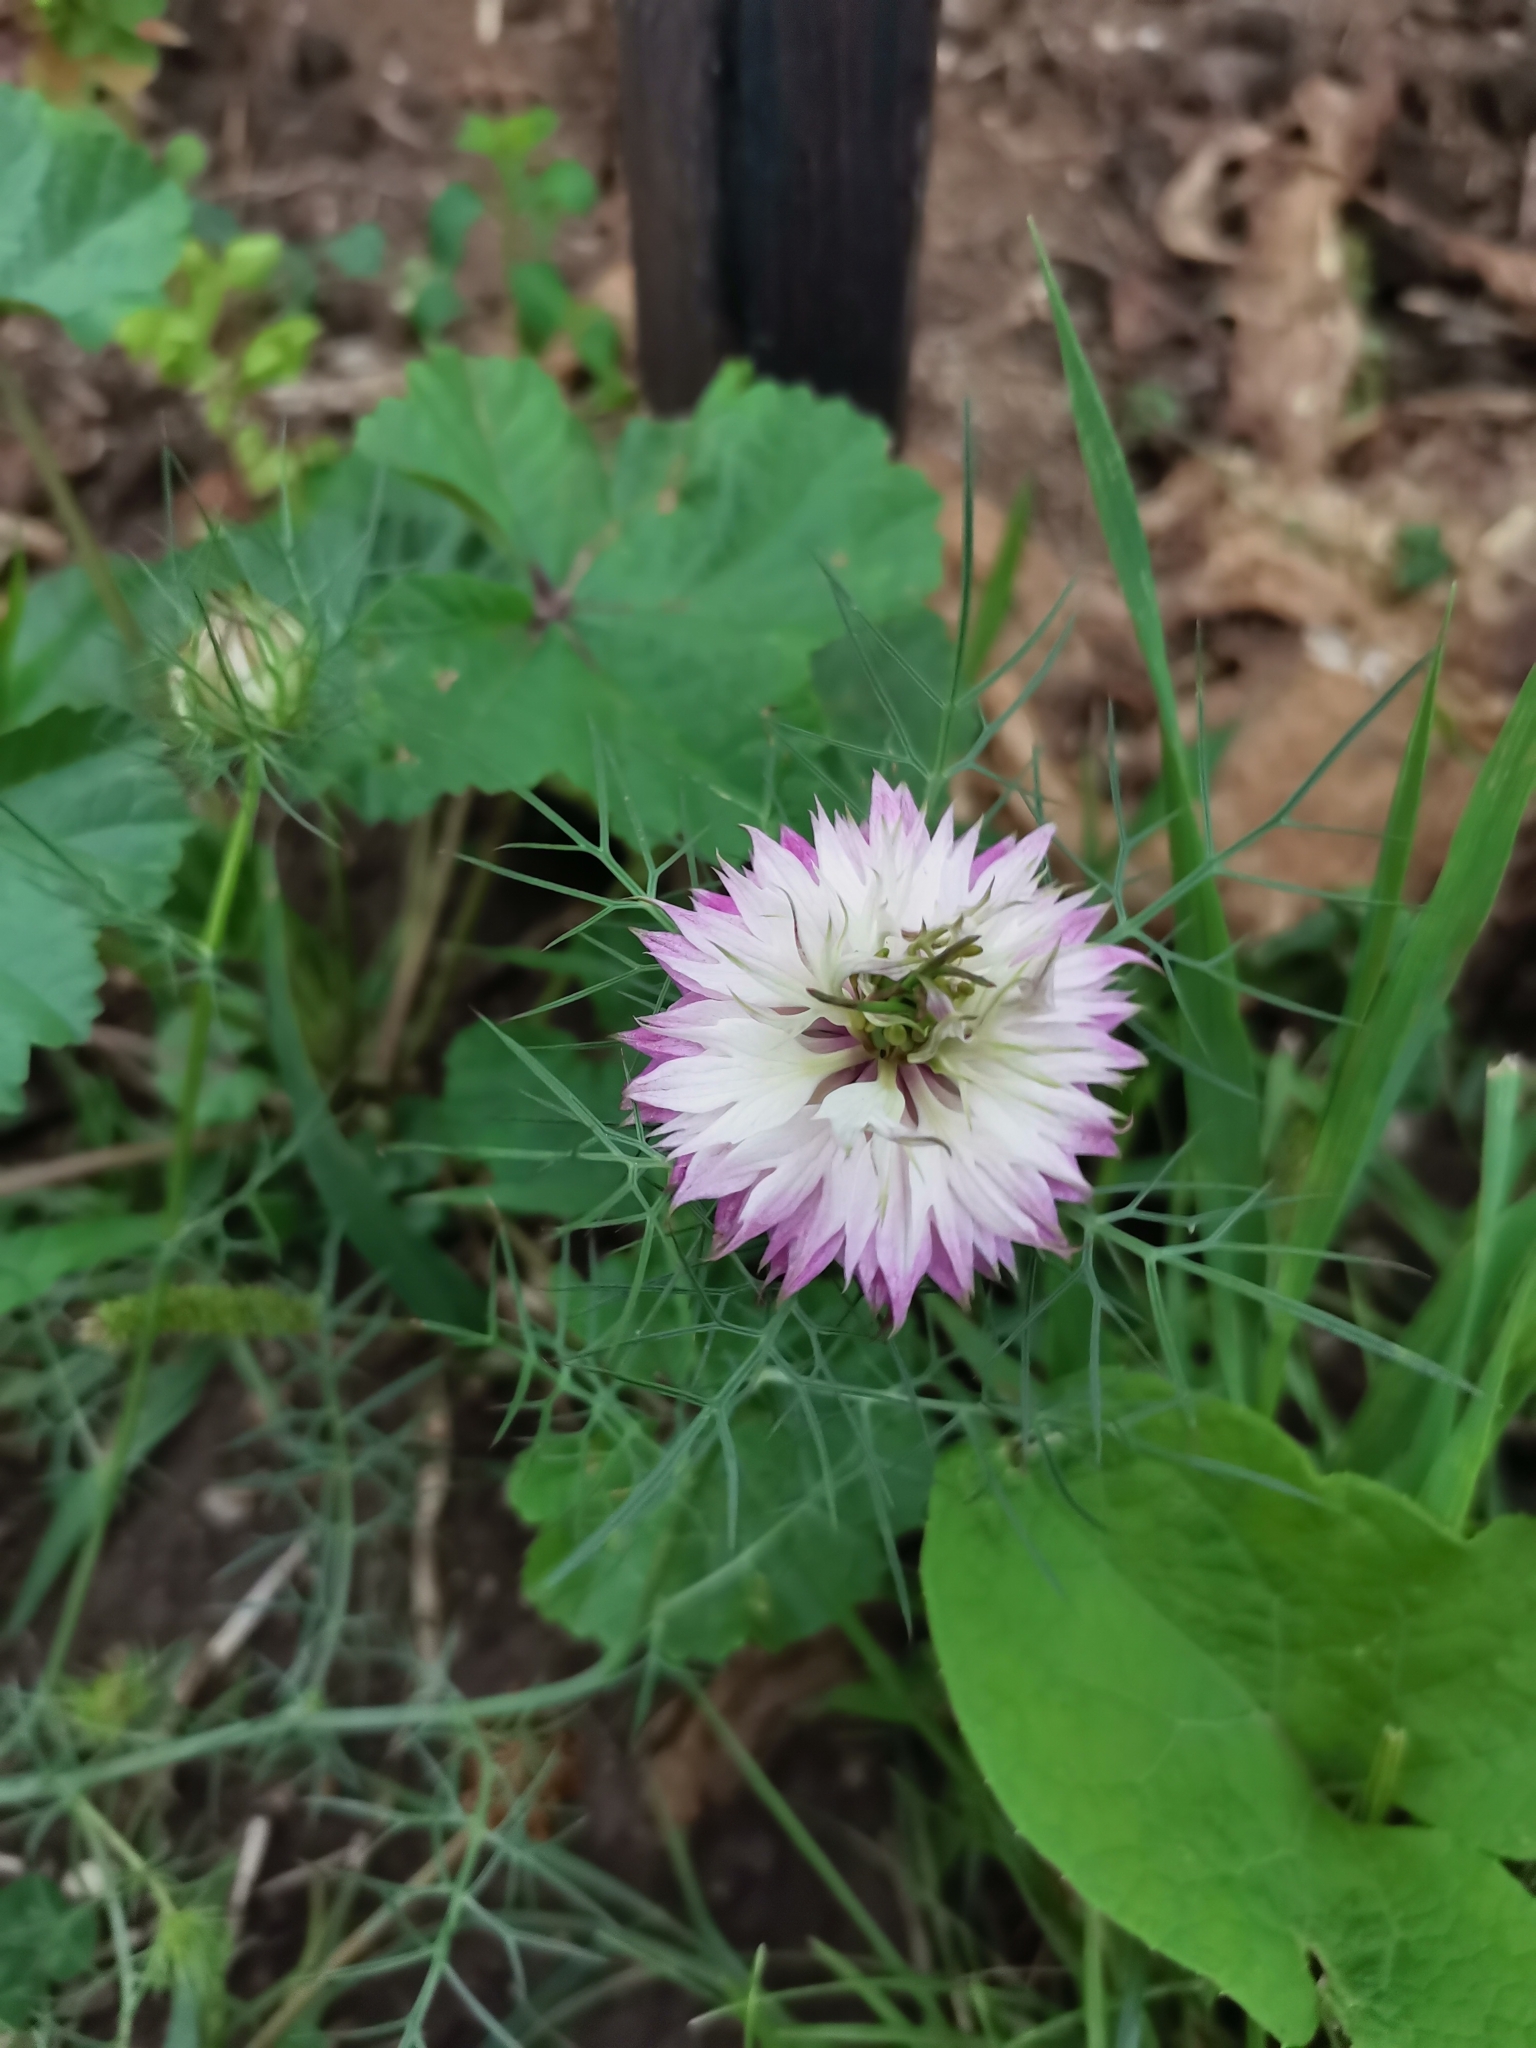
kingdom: Plantae
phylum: Tracheophyta
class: Magnoliopsida
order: Ranunculales
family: Ranunculaceae
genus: Nigella
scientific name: Nigella damascena
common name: Love-in-a-mist
